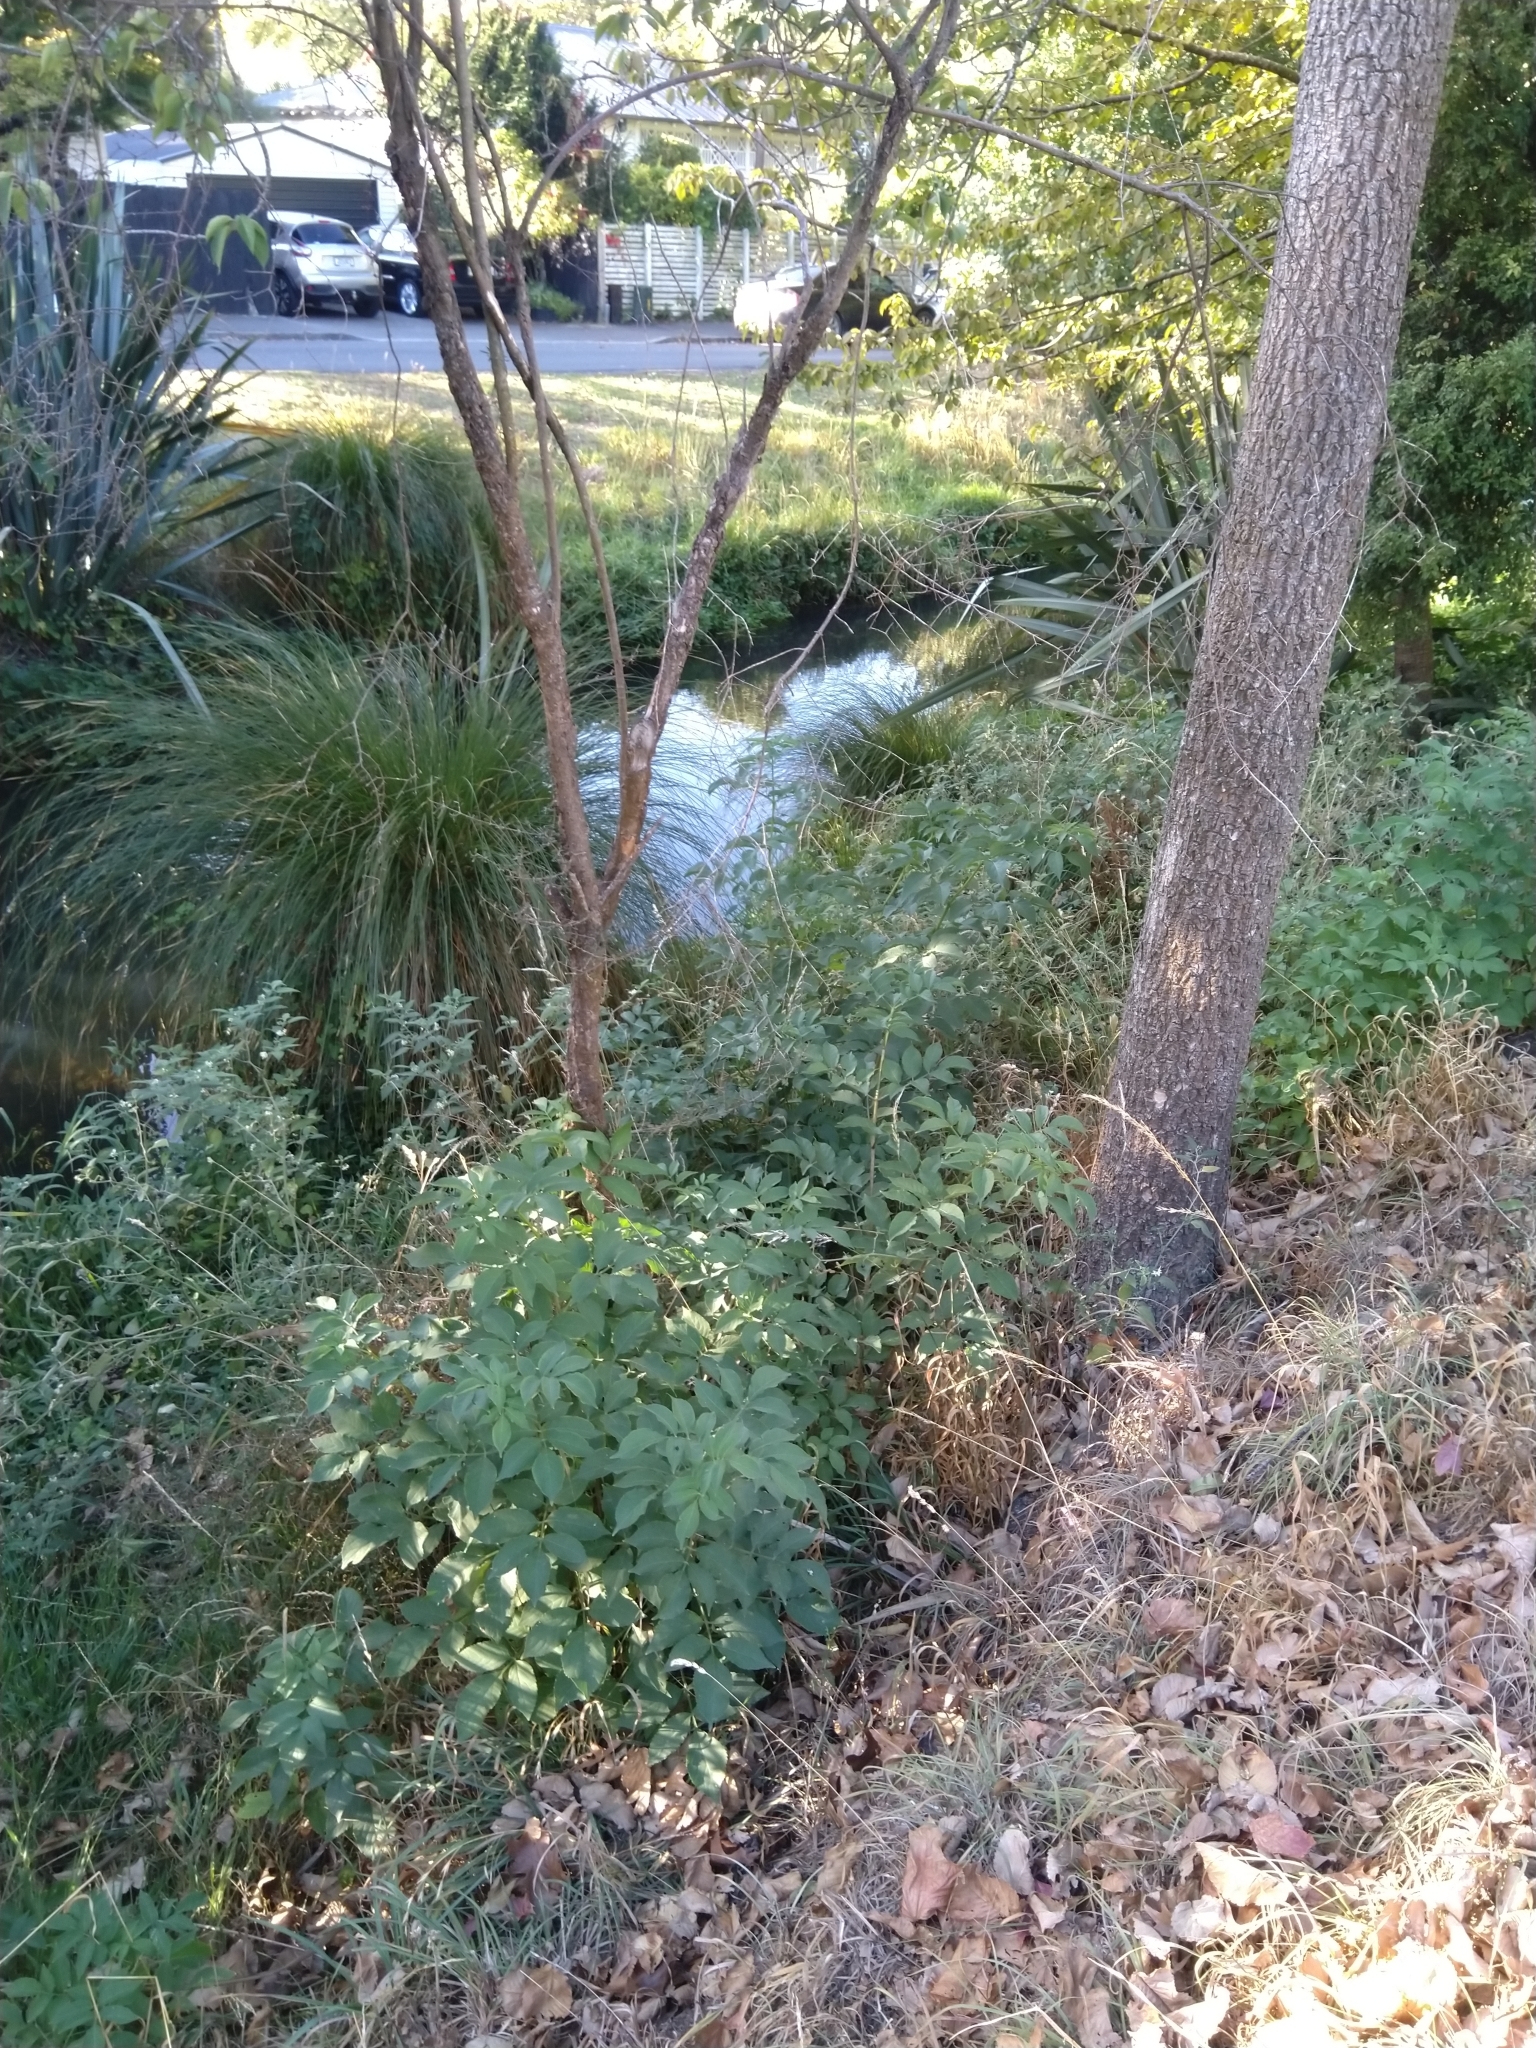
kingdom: Plantae
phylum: Tracheophyta
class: Magnoliopsida
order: Dipsacales
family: Viburnaceae
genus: Sambucus
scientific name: Sambucus nigra
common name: Elder
